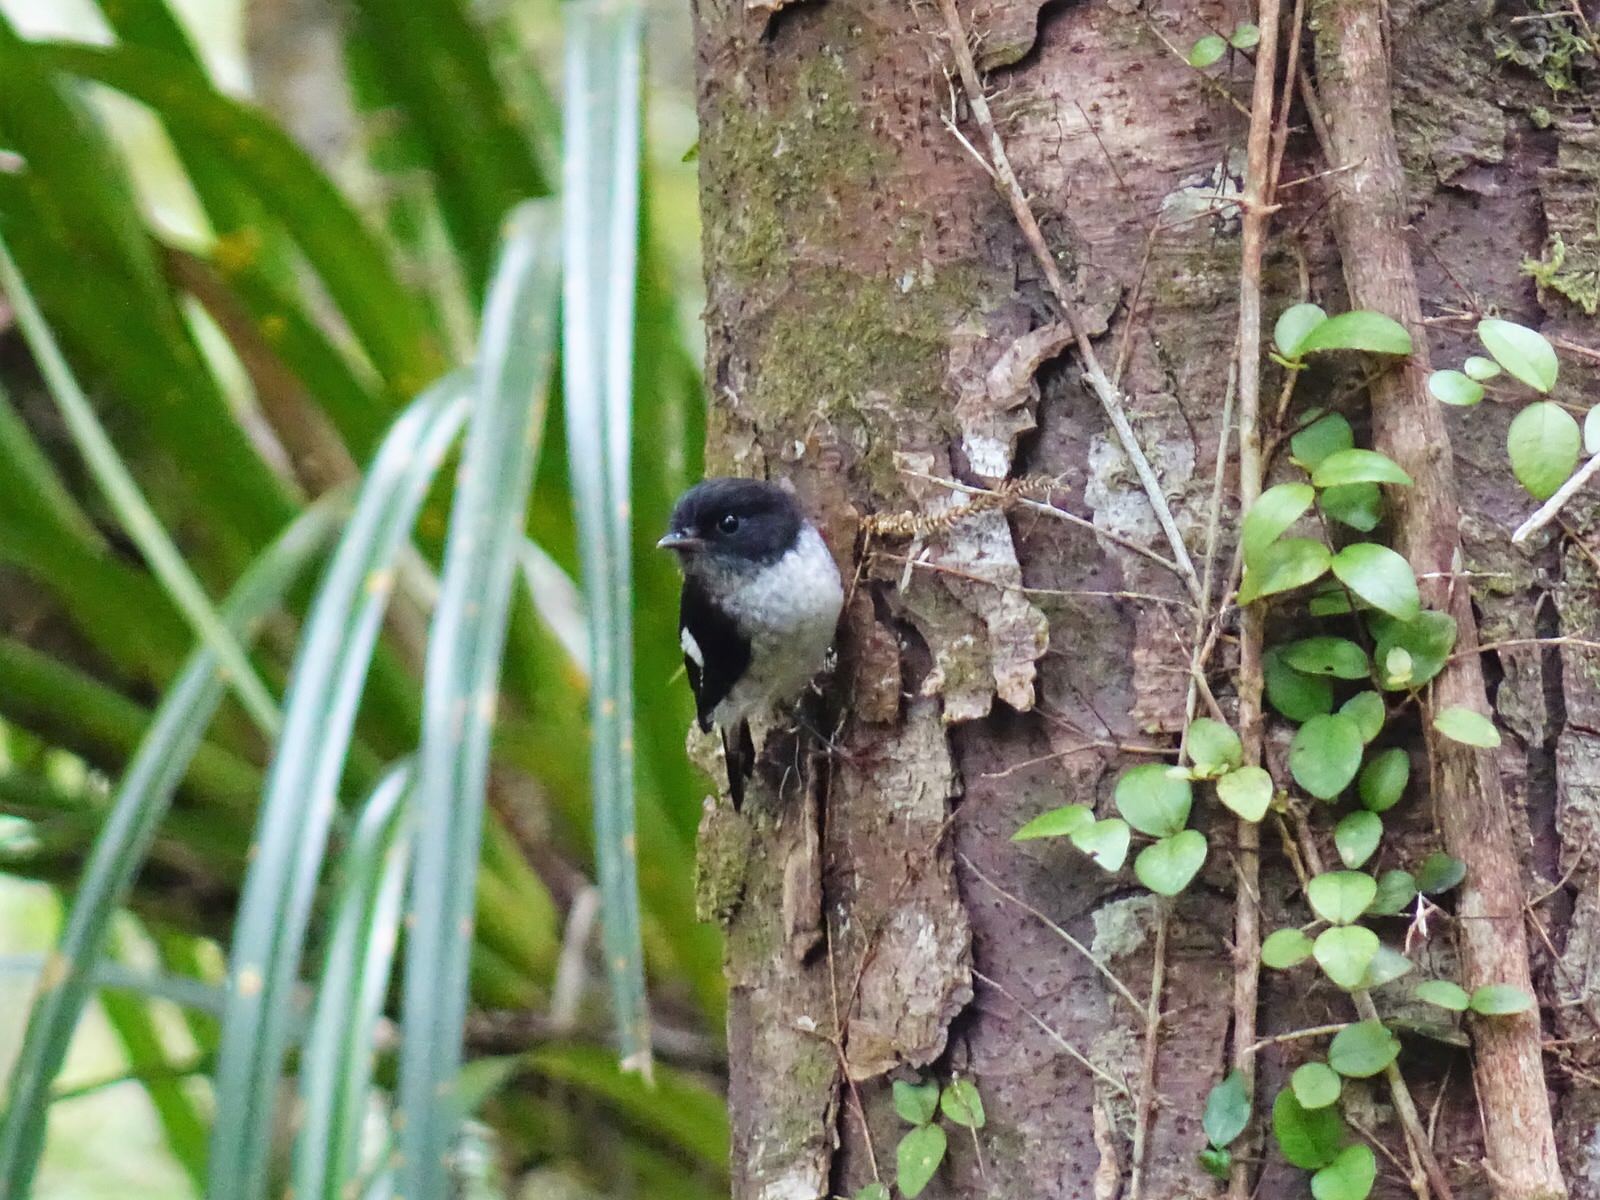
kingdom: Animalia
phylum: Chordata
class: Aves
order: Passeriformes
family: Petroicidae
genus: Petroica
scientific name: Petroica macrocephala
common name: Tomtit
